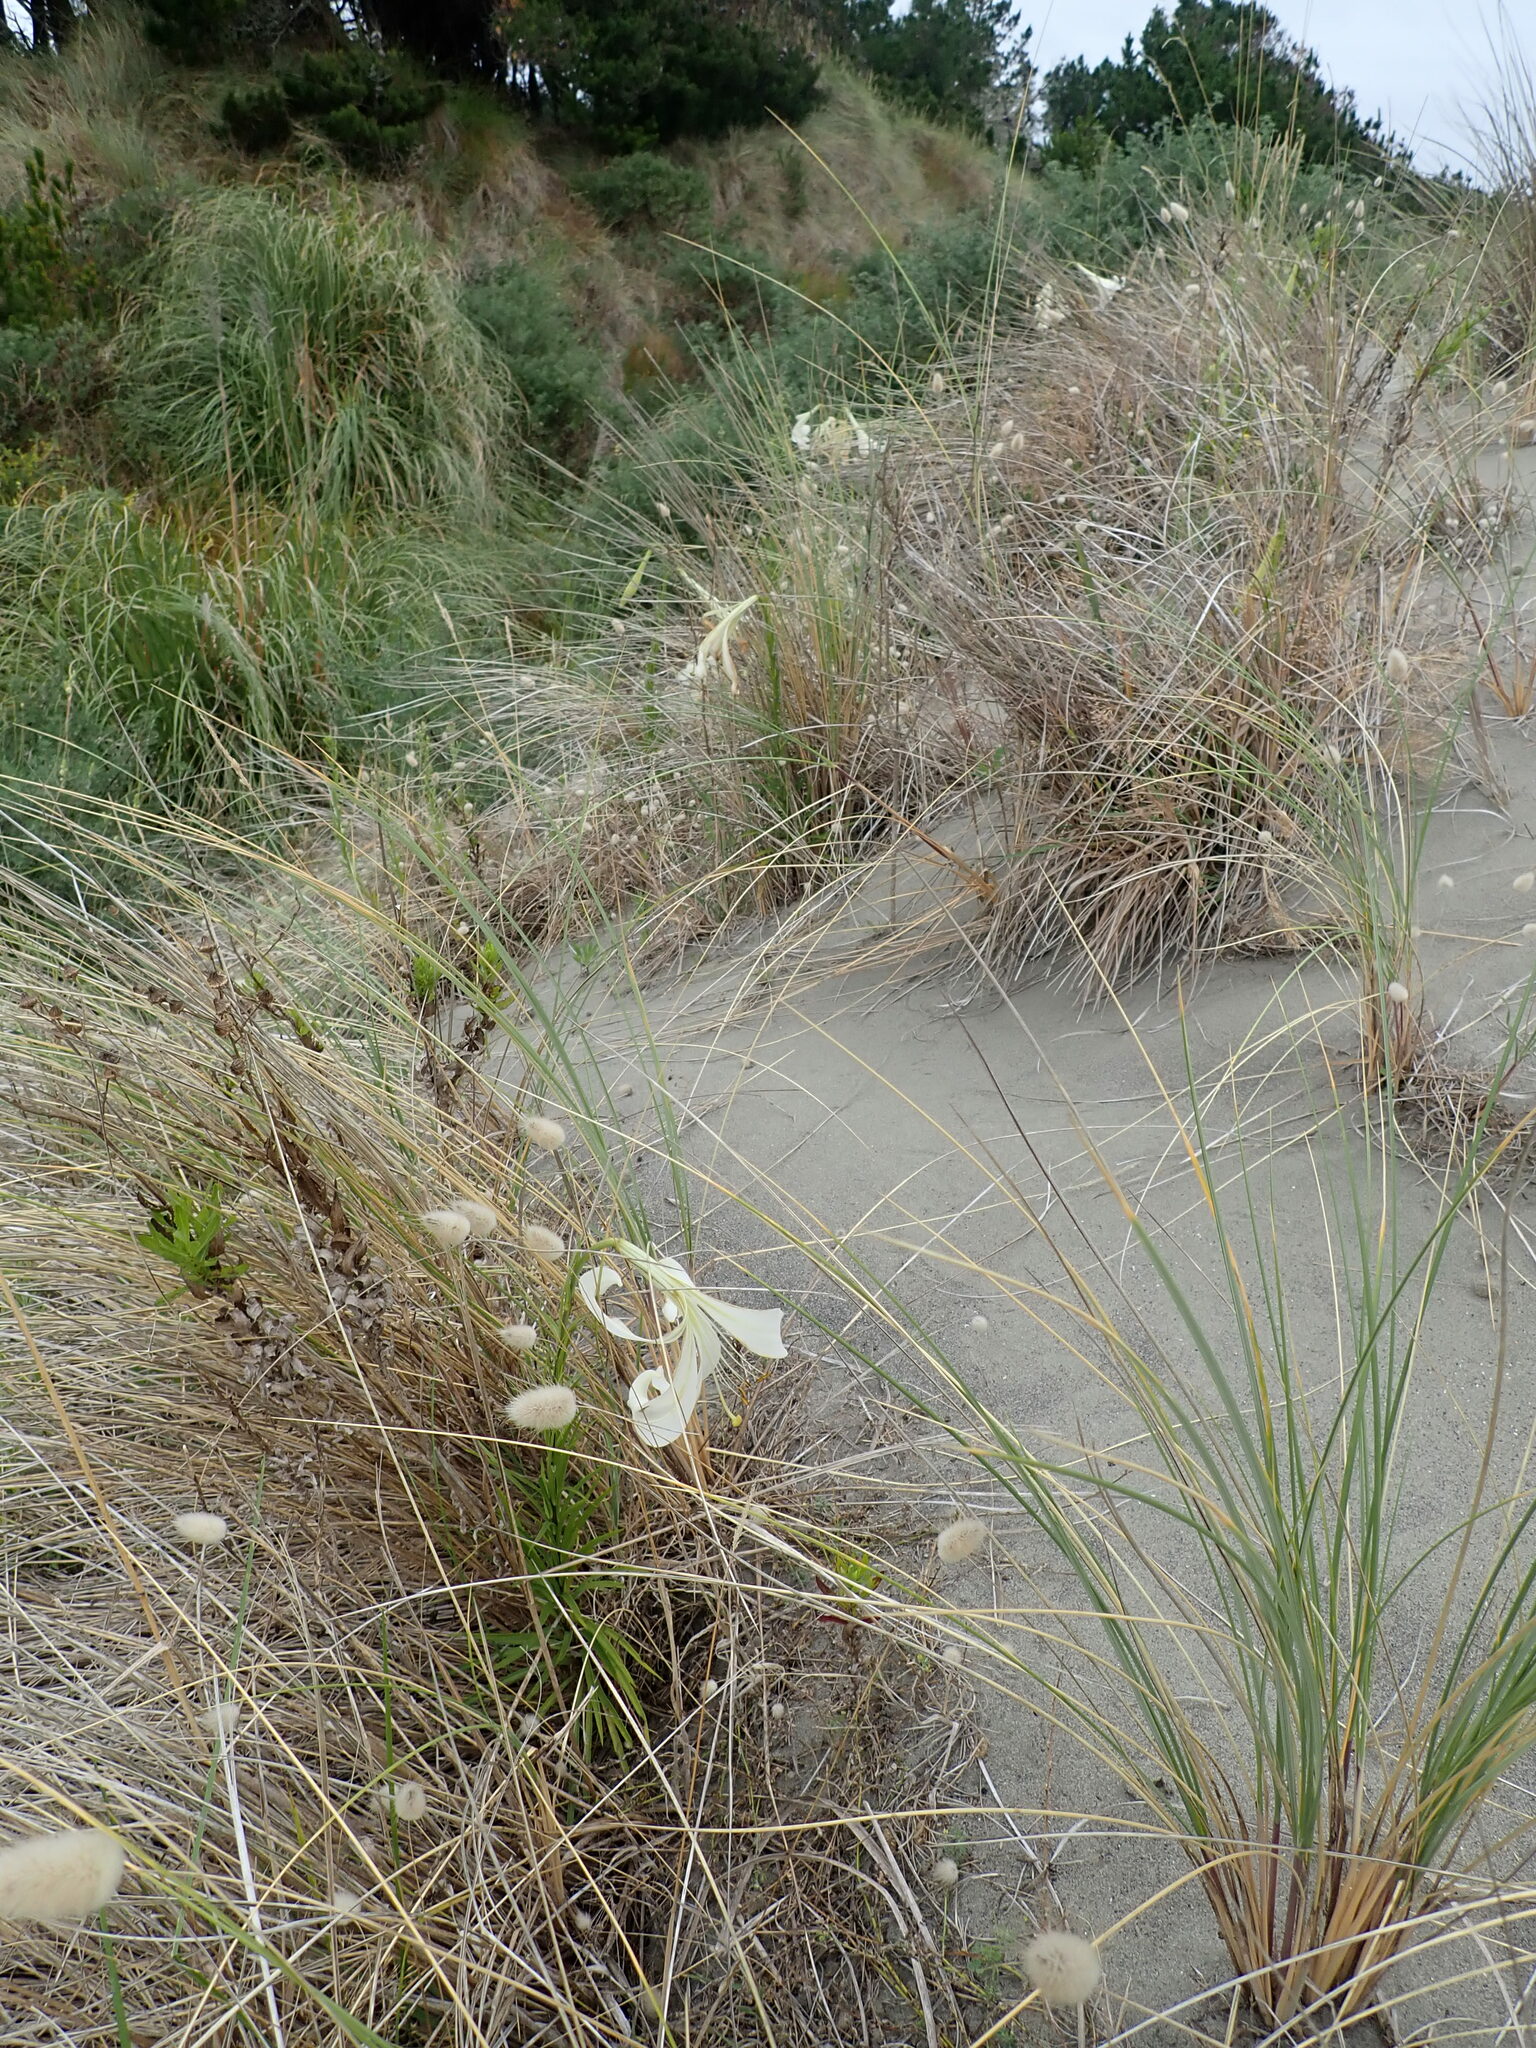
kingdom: Plantae
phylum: Tracheophyta
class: Liliopsida
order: Liliales
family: Liliaceae
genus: Lilium
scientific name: Lilium formosanum
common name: Formosa lily
